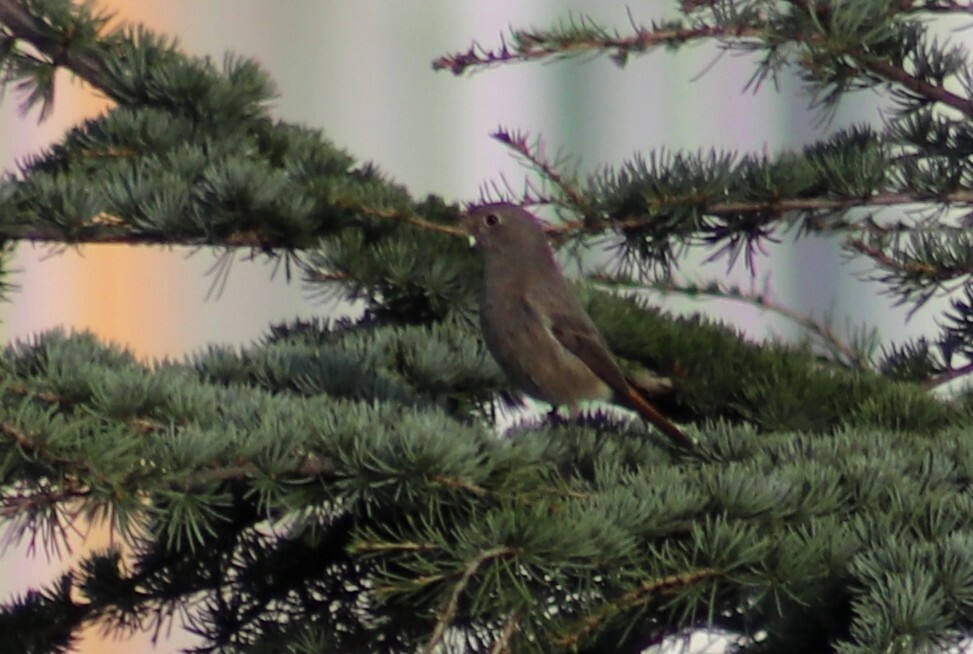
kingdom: Animalia
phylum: Chordata
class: Aves
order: Passeriformes
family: Muscicapidae
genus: Phoenicurus
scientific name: Phoenicurus ochruros
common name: Black redstart
